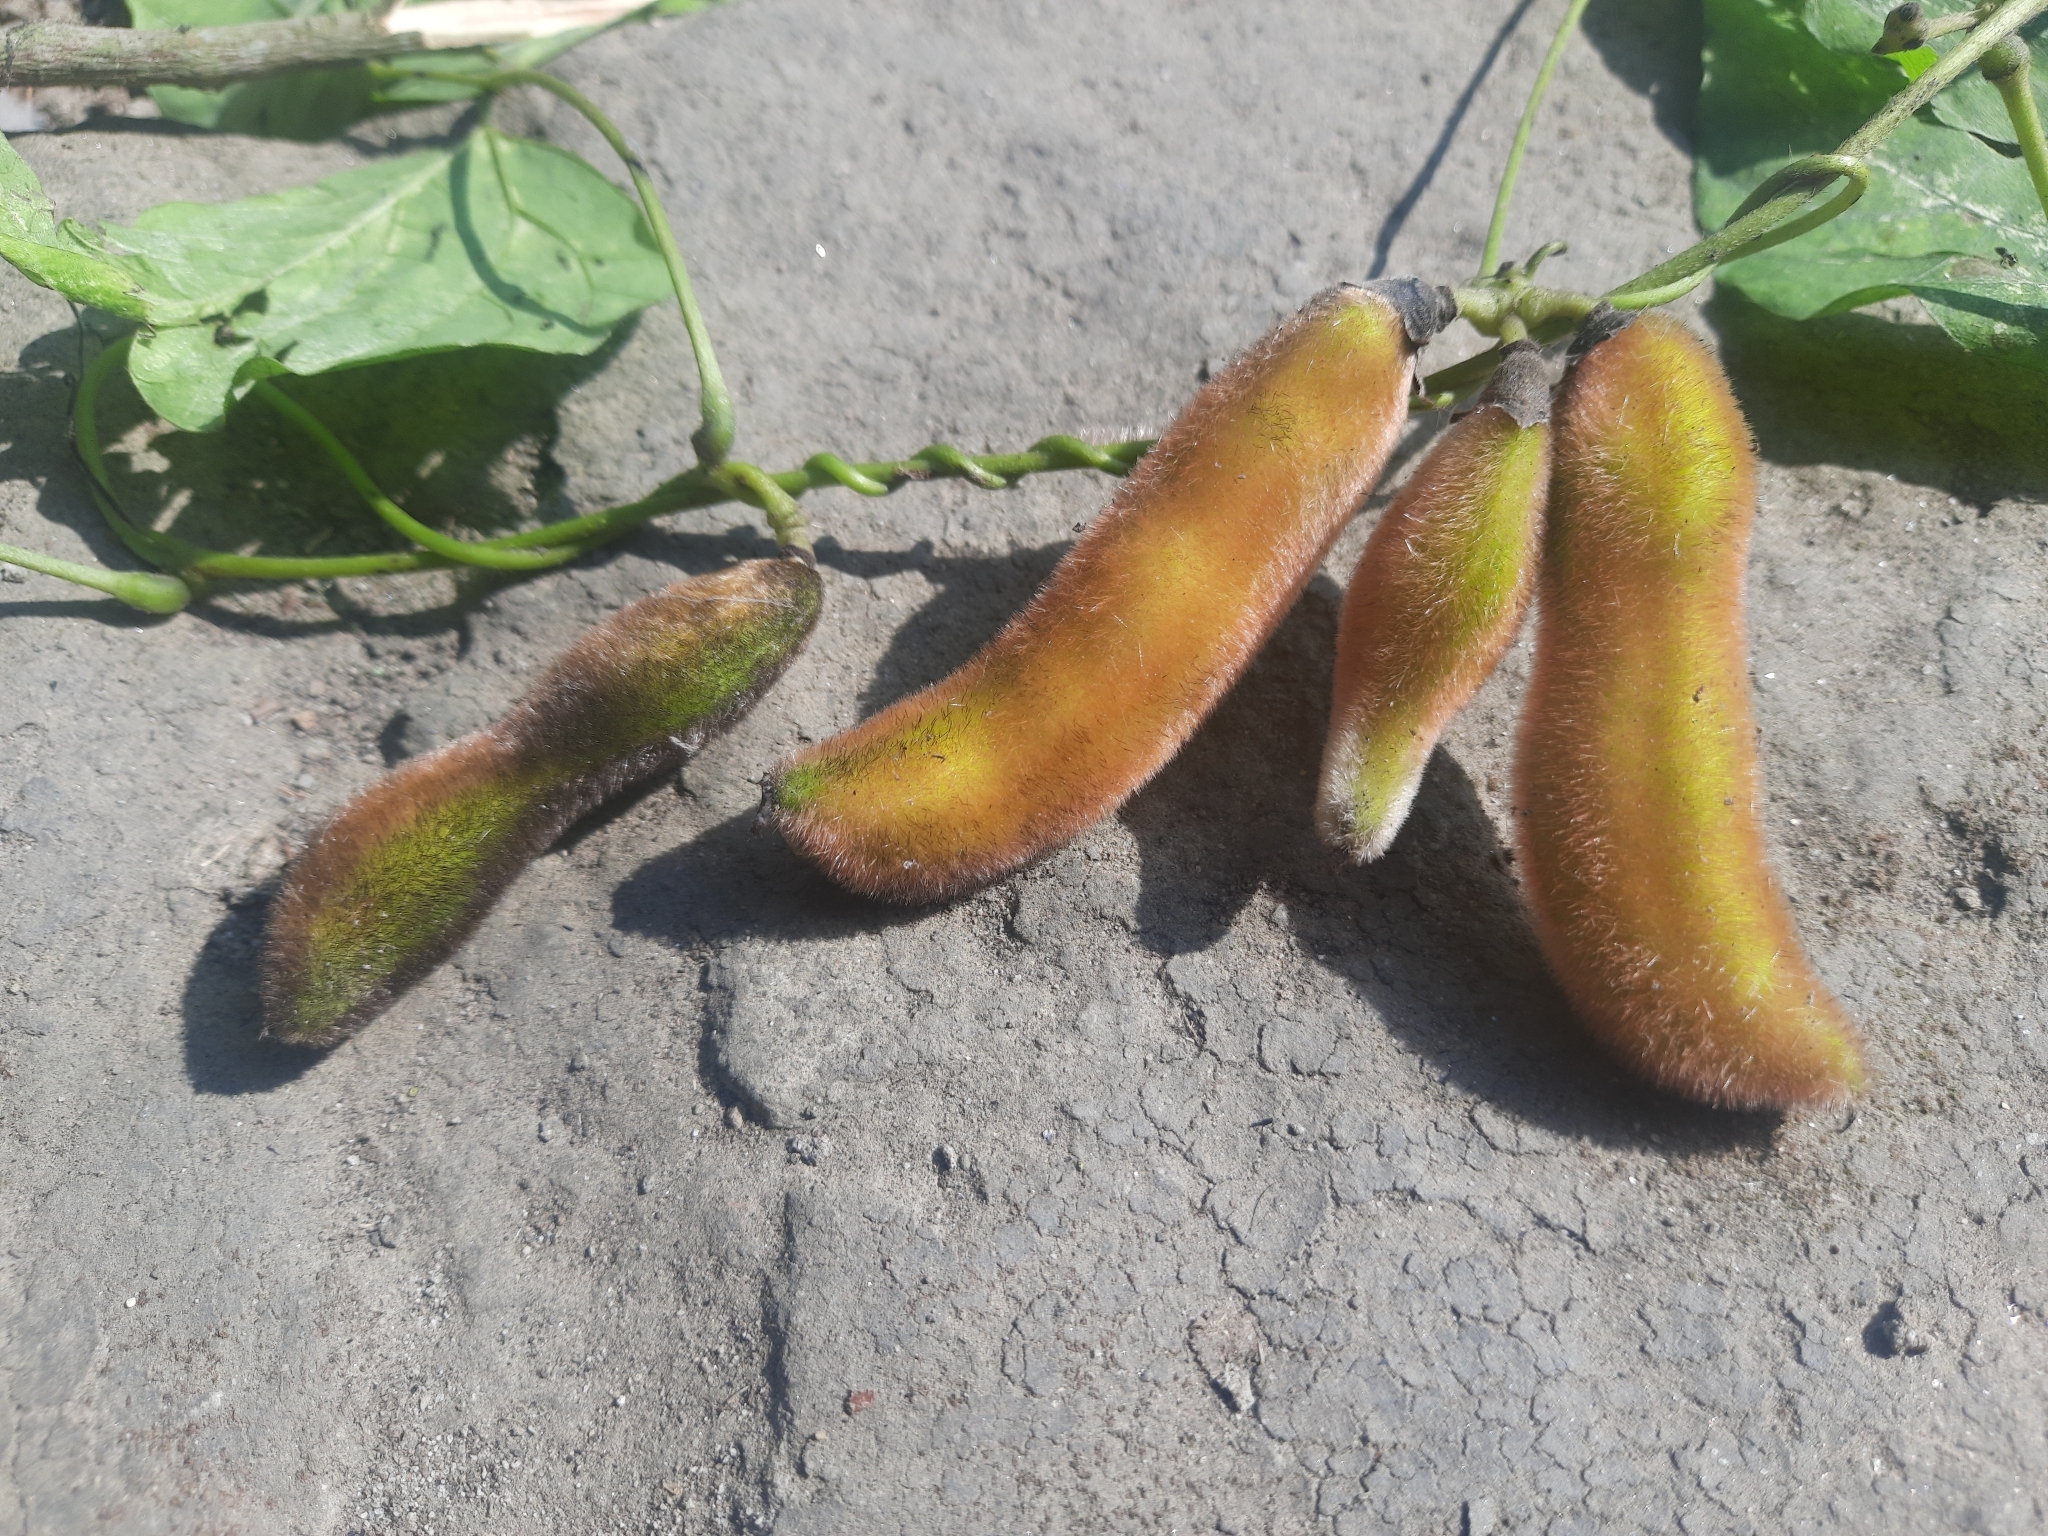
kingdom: Plantae
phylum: Tracheophyta
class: Magnoliopsida
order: Fabales
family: Fabaceae
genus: Mucuna
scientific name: Mucuna pruriens
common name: Cow-itch
